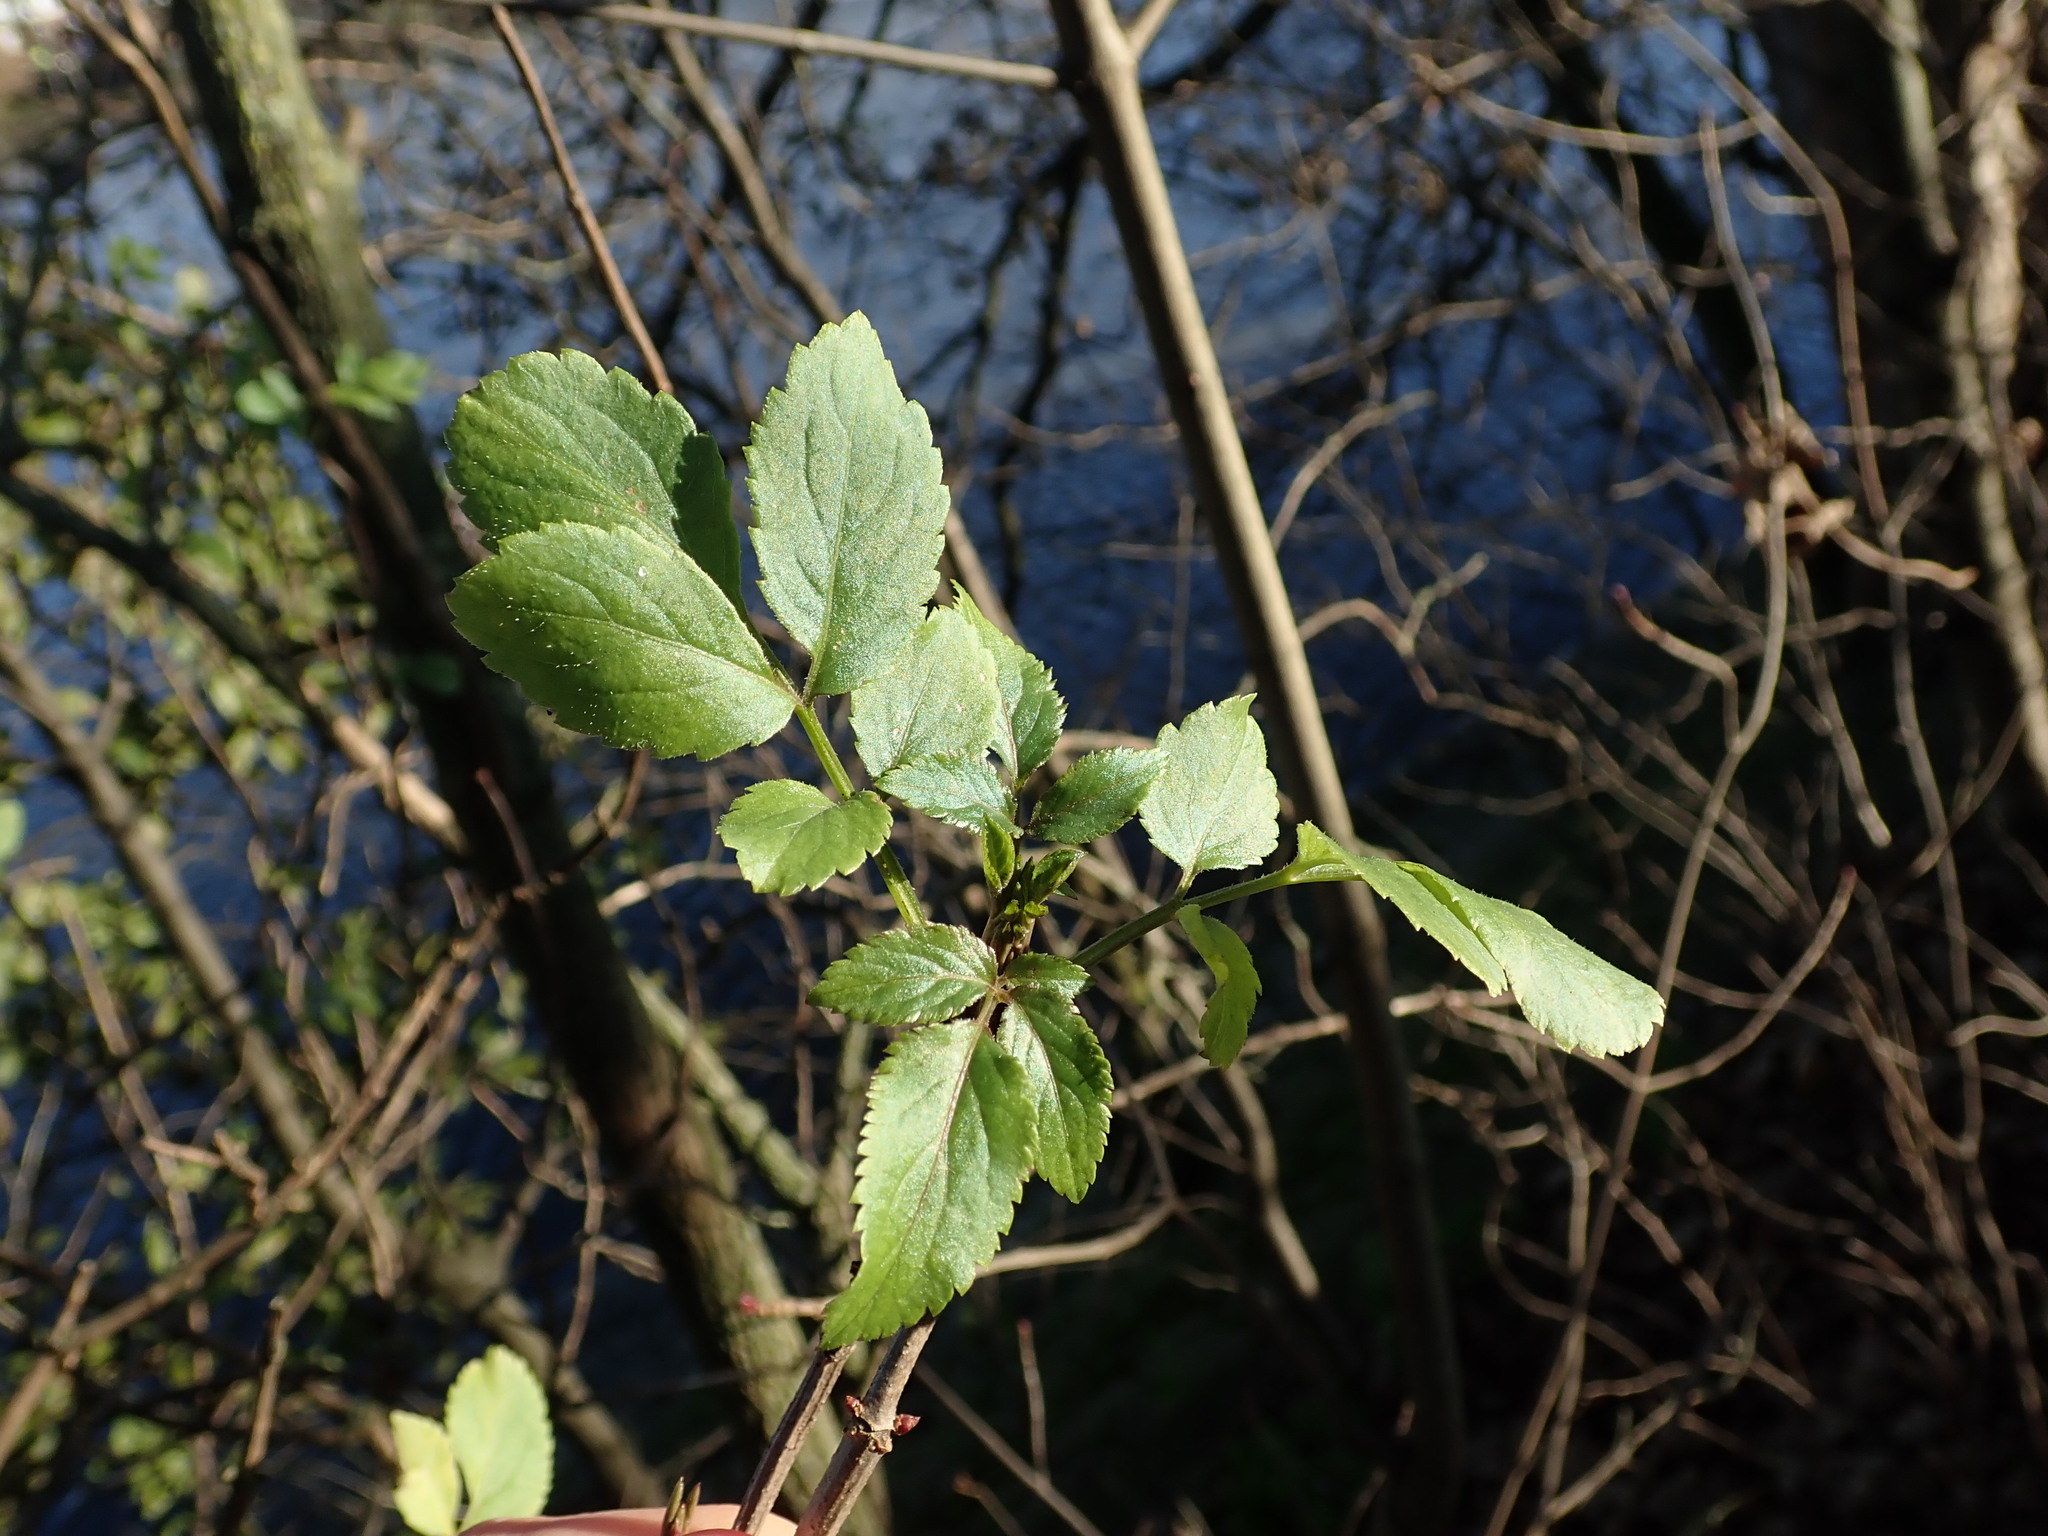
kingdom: Plantae
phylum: Tracheophyta
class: Magnoliopsida
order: Dipsacales
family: Viburnaceae
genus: Sambucus
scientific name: Sambucus nigra
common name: Elder
